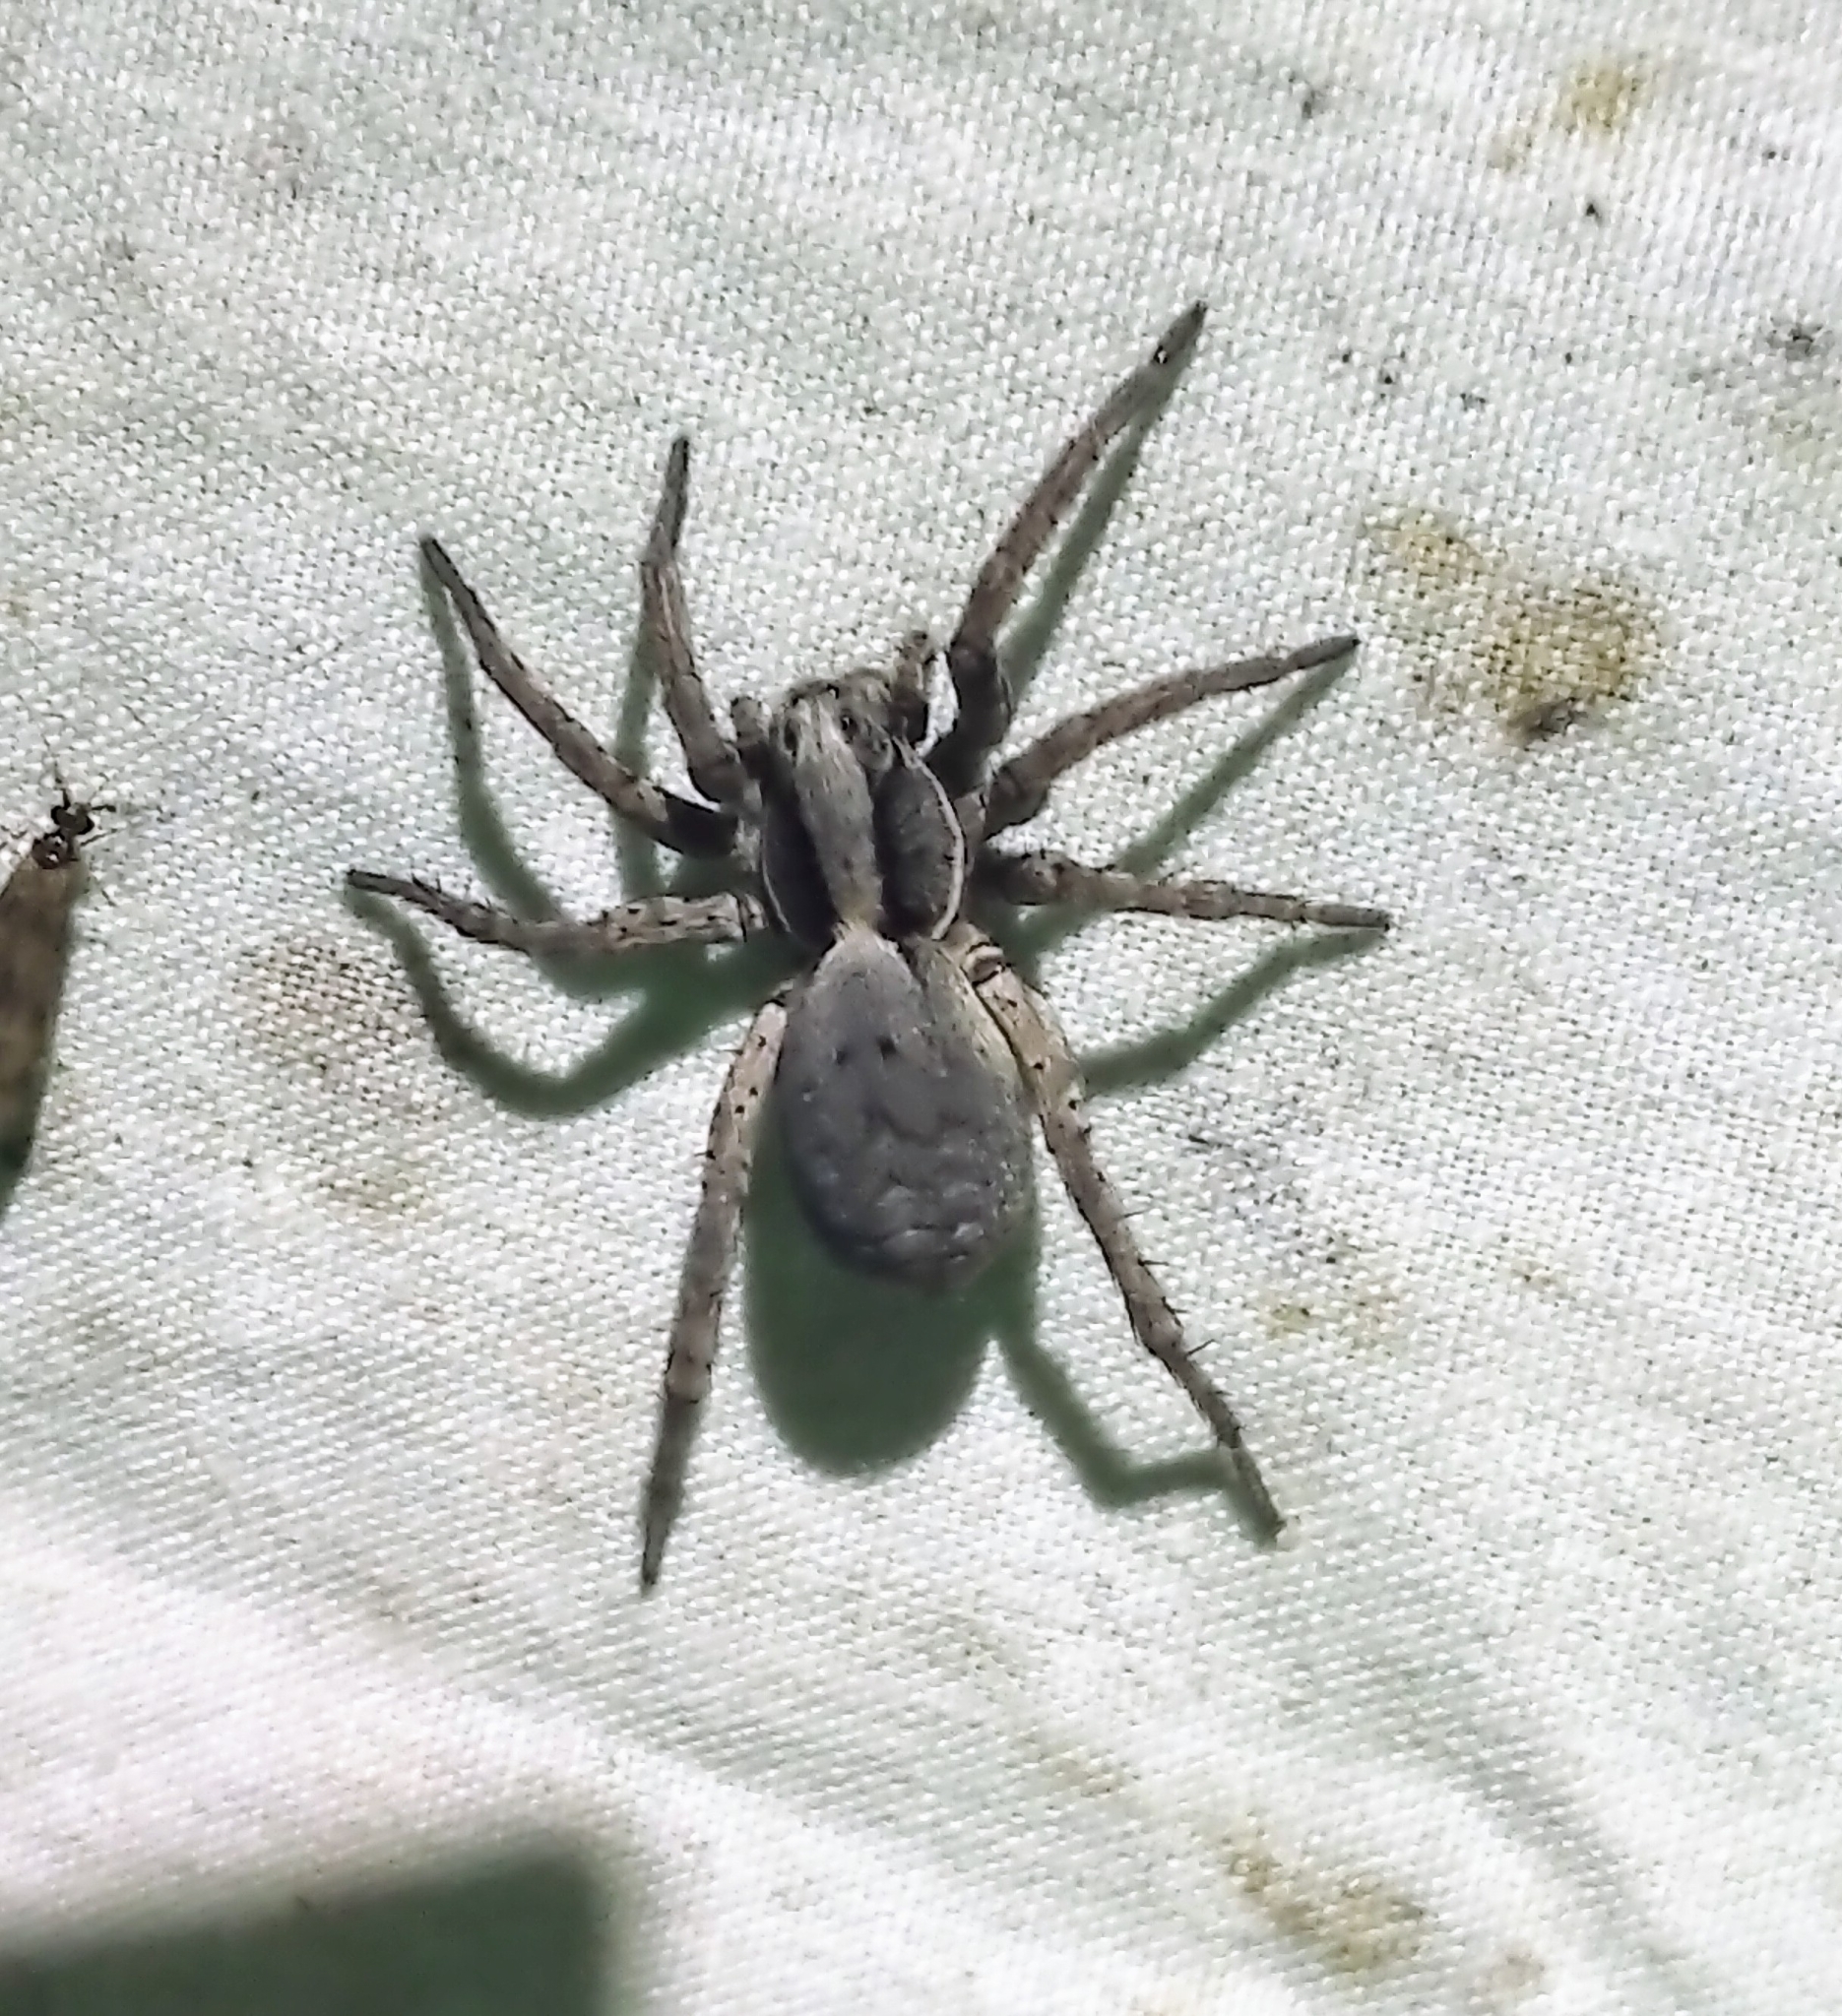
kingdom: Animalia
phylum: Arthropoda
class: Arachnida
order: Araneae
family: Lycosidae
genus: Hogna
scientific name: Hogna frondicola
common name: Forest wolf spider
